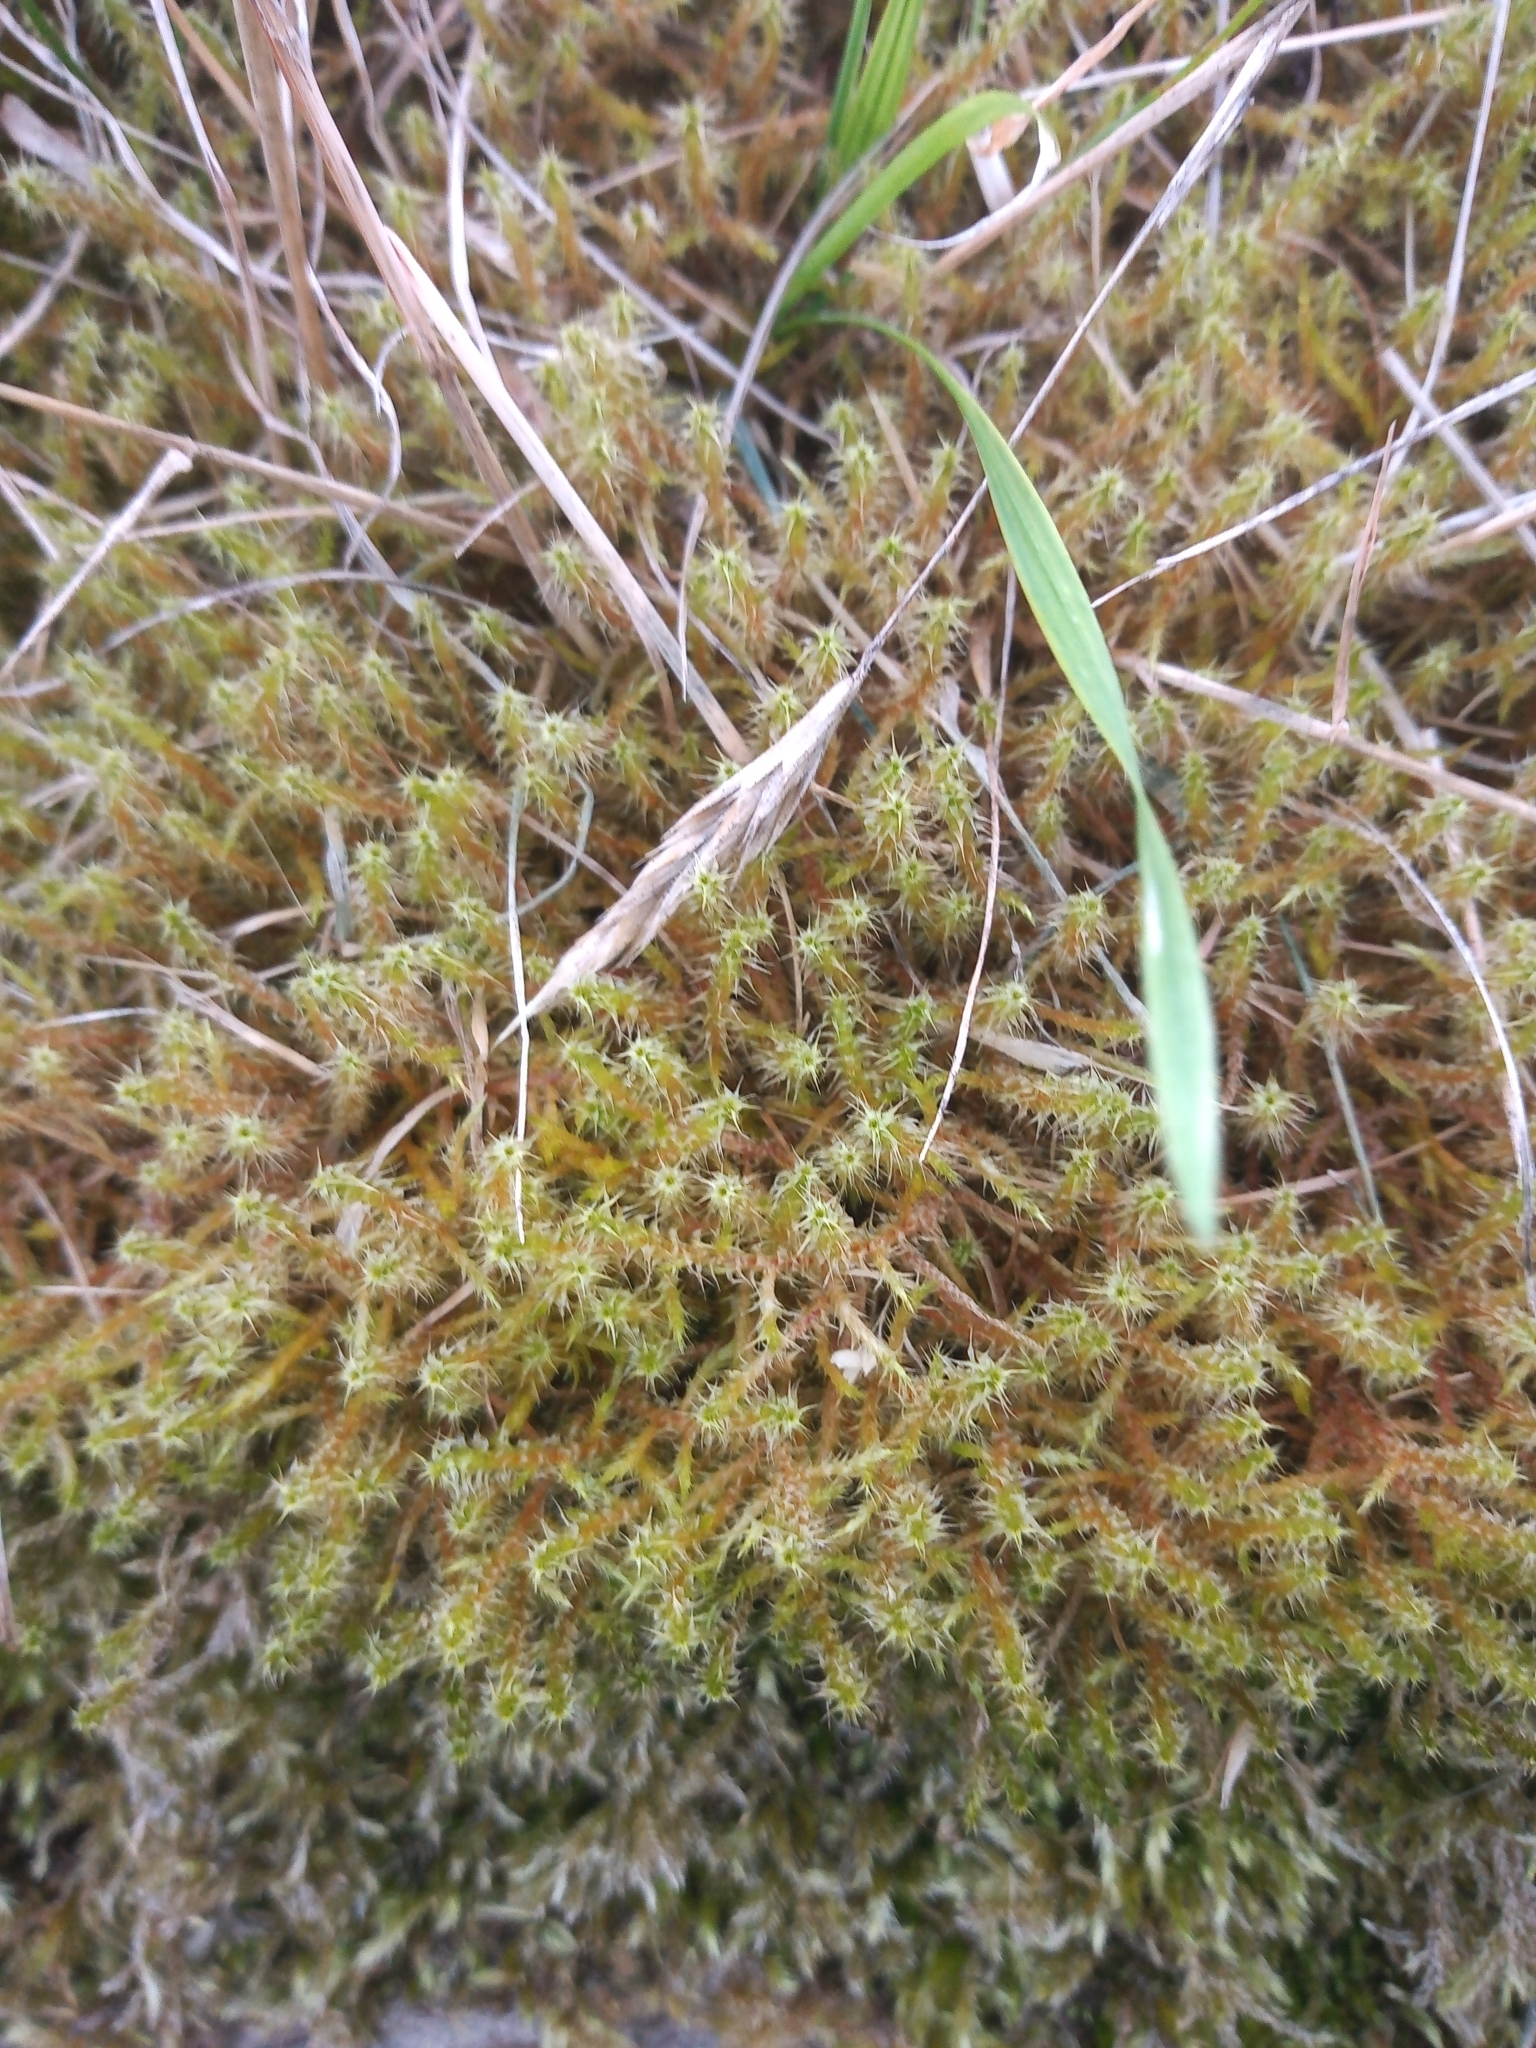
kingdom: Plantae
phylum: Bryophyta
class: Bryopsida
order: Hypnales
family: Hylocomiaceae
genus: Rhytidiadelphus
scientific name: Rhytidiadelphus squarrosus
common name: Springy turf-moss
